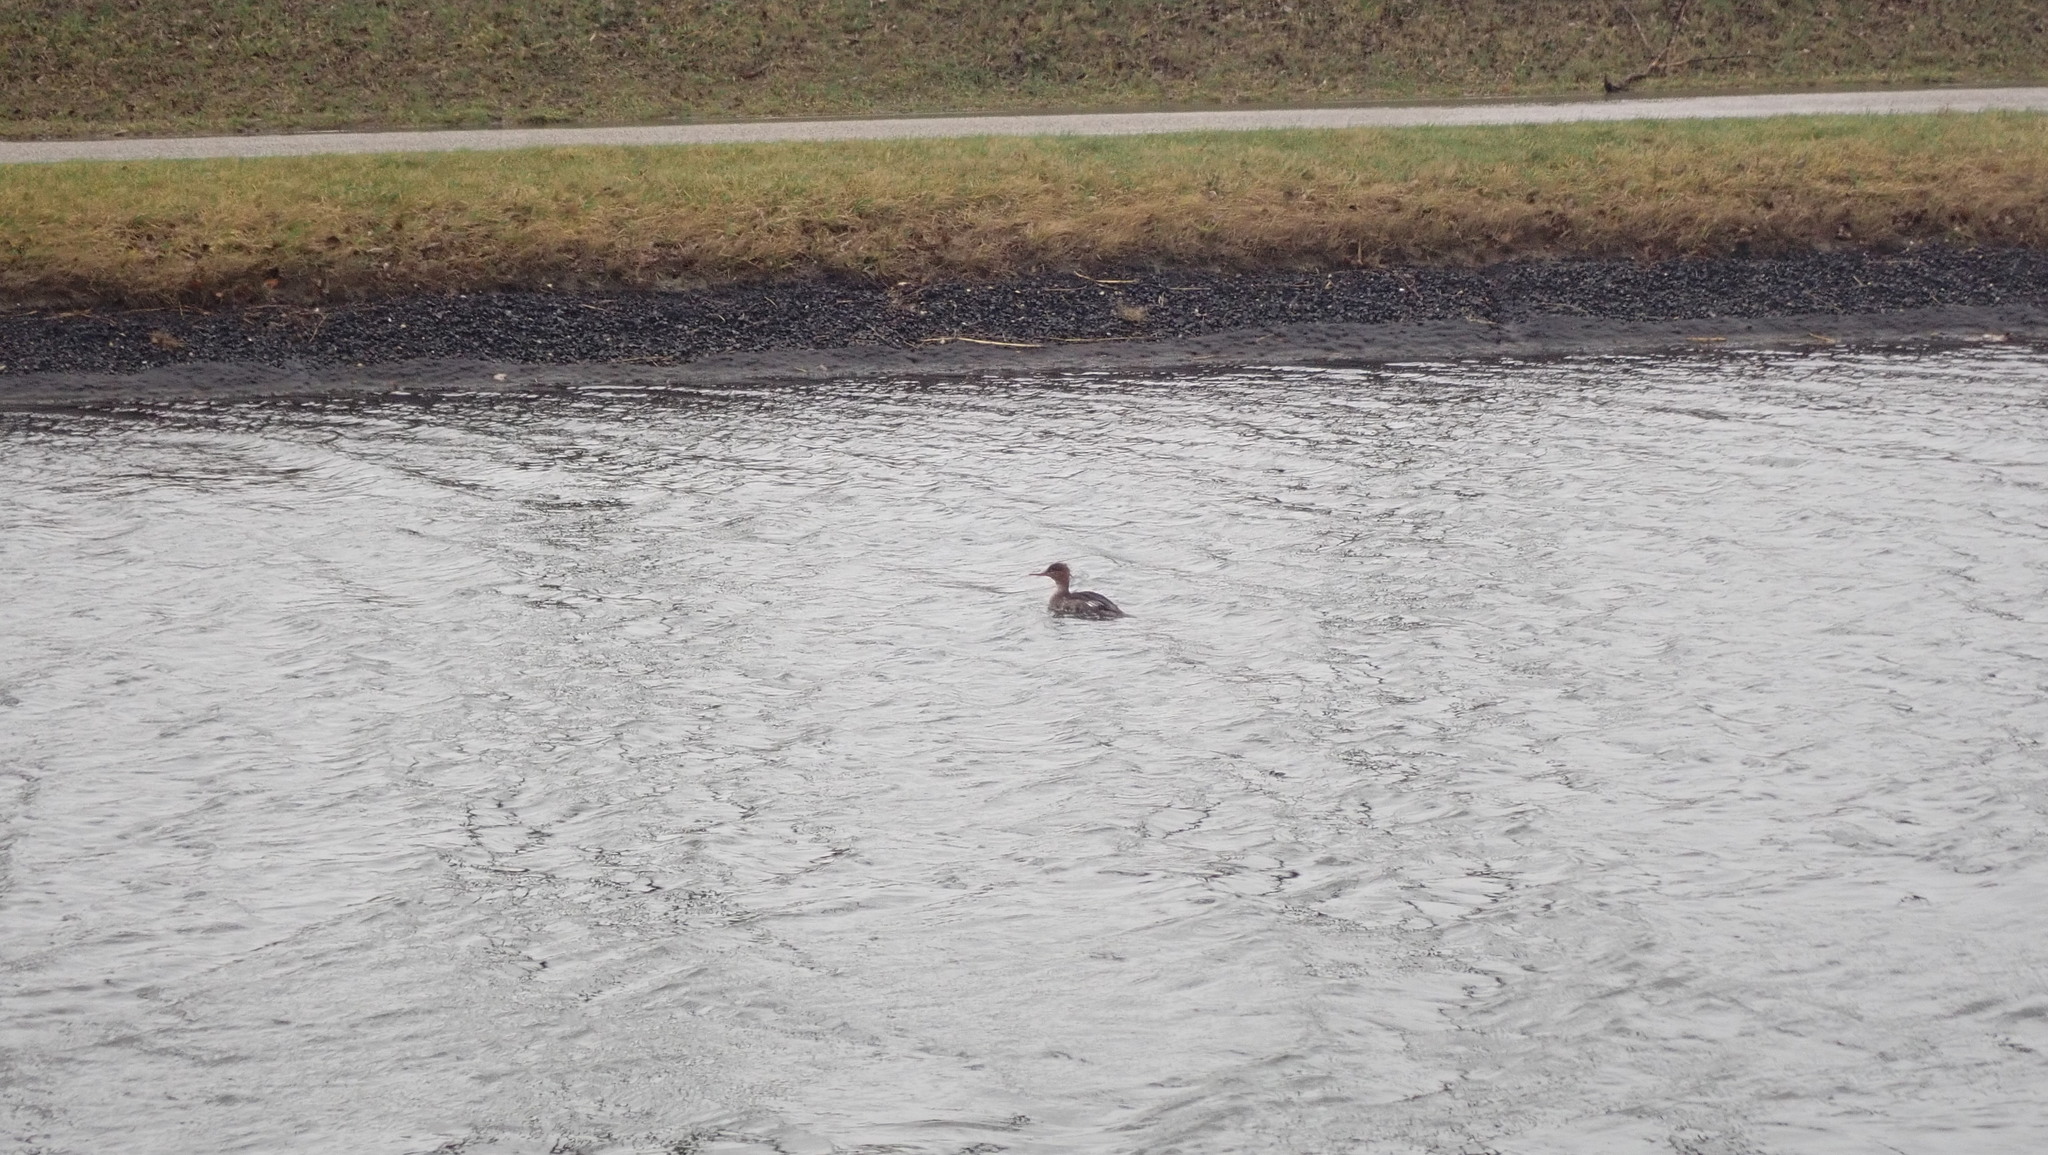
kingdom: Animalia
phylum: Chordata
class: Aves
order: Anseriformes
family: Anatidae
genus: Mergus
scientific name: Mergus serrator
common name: Red-breasted merganser
